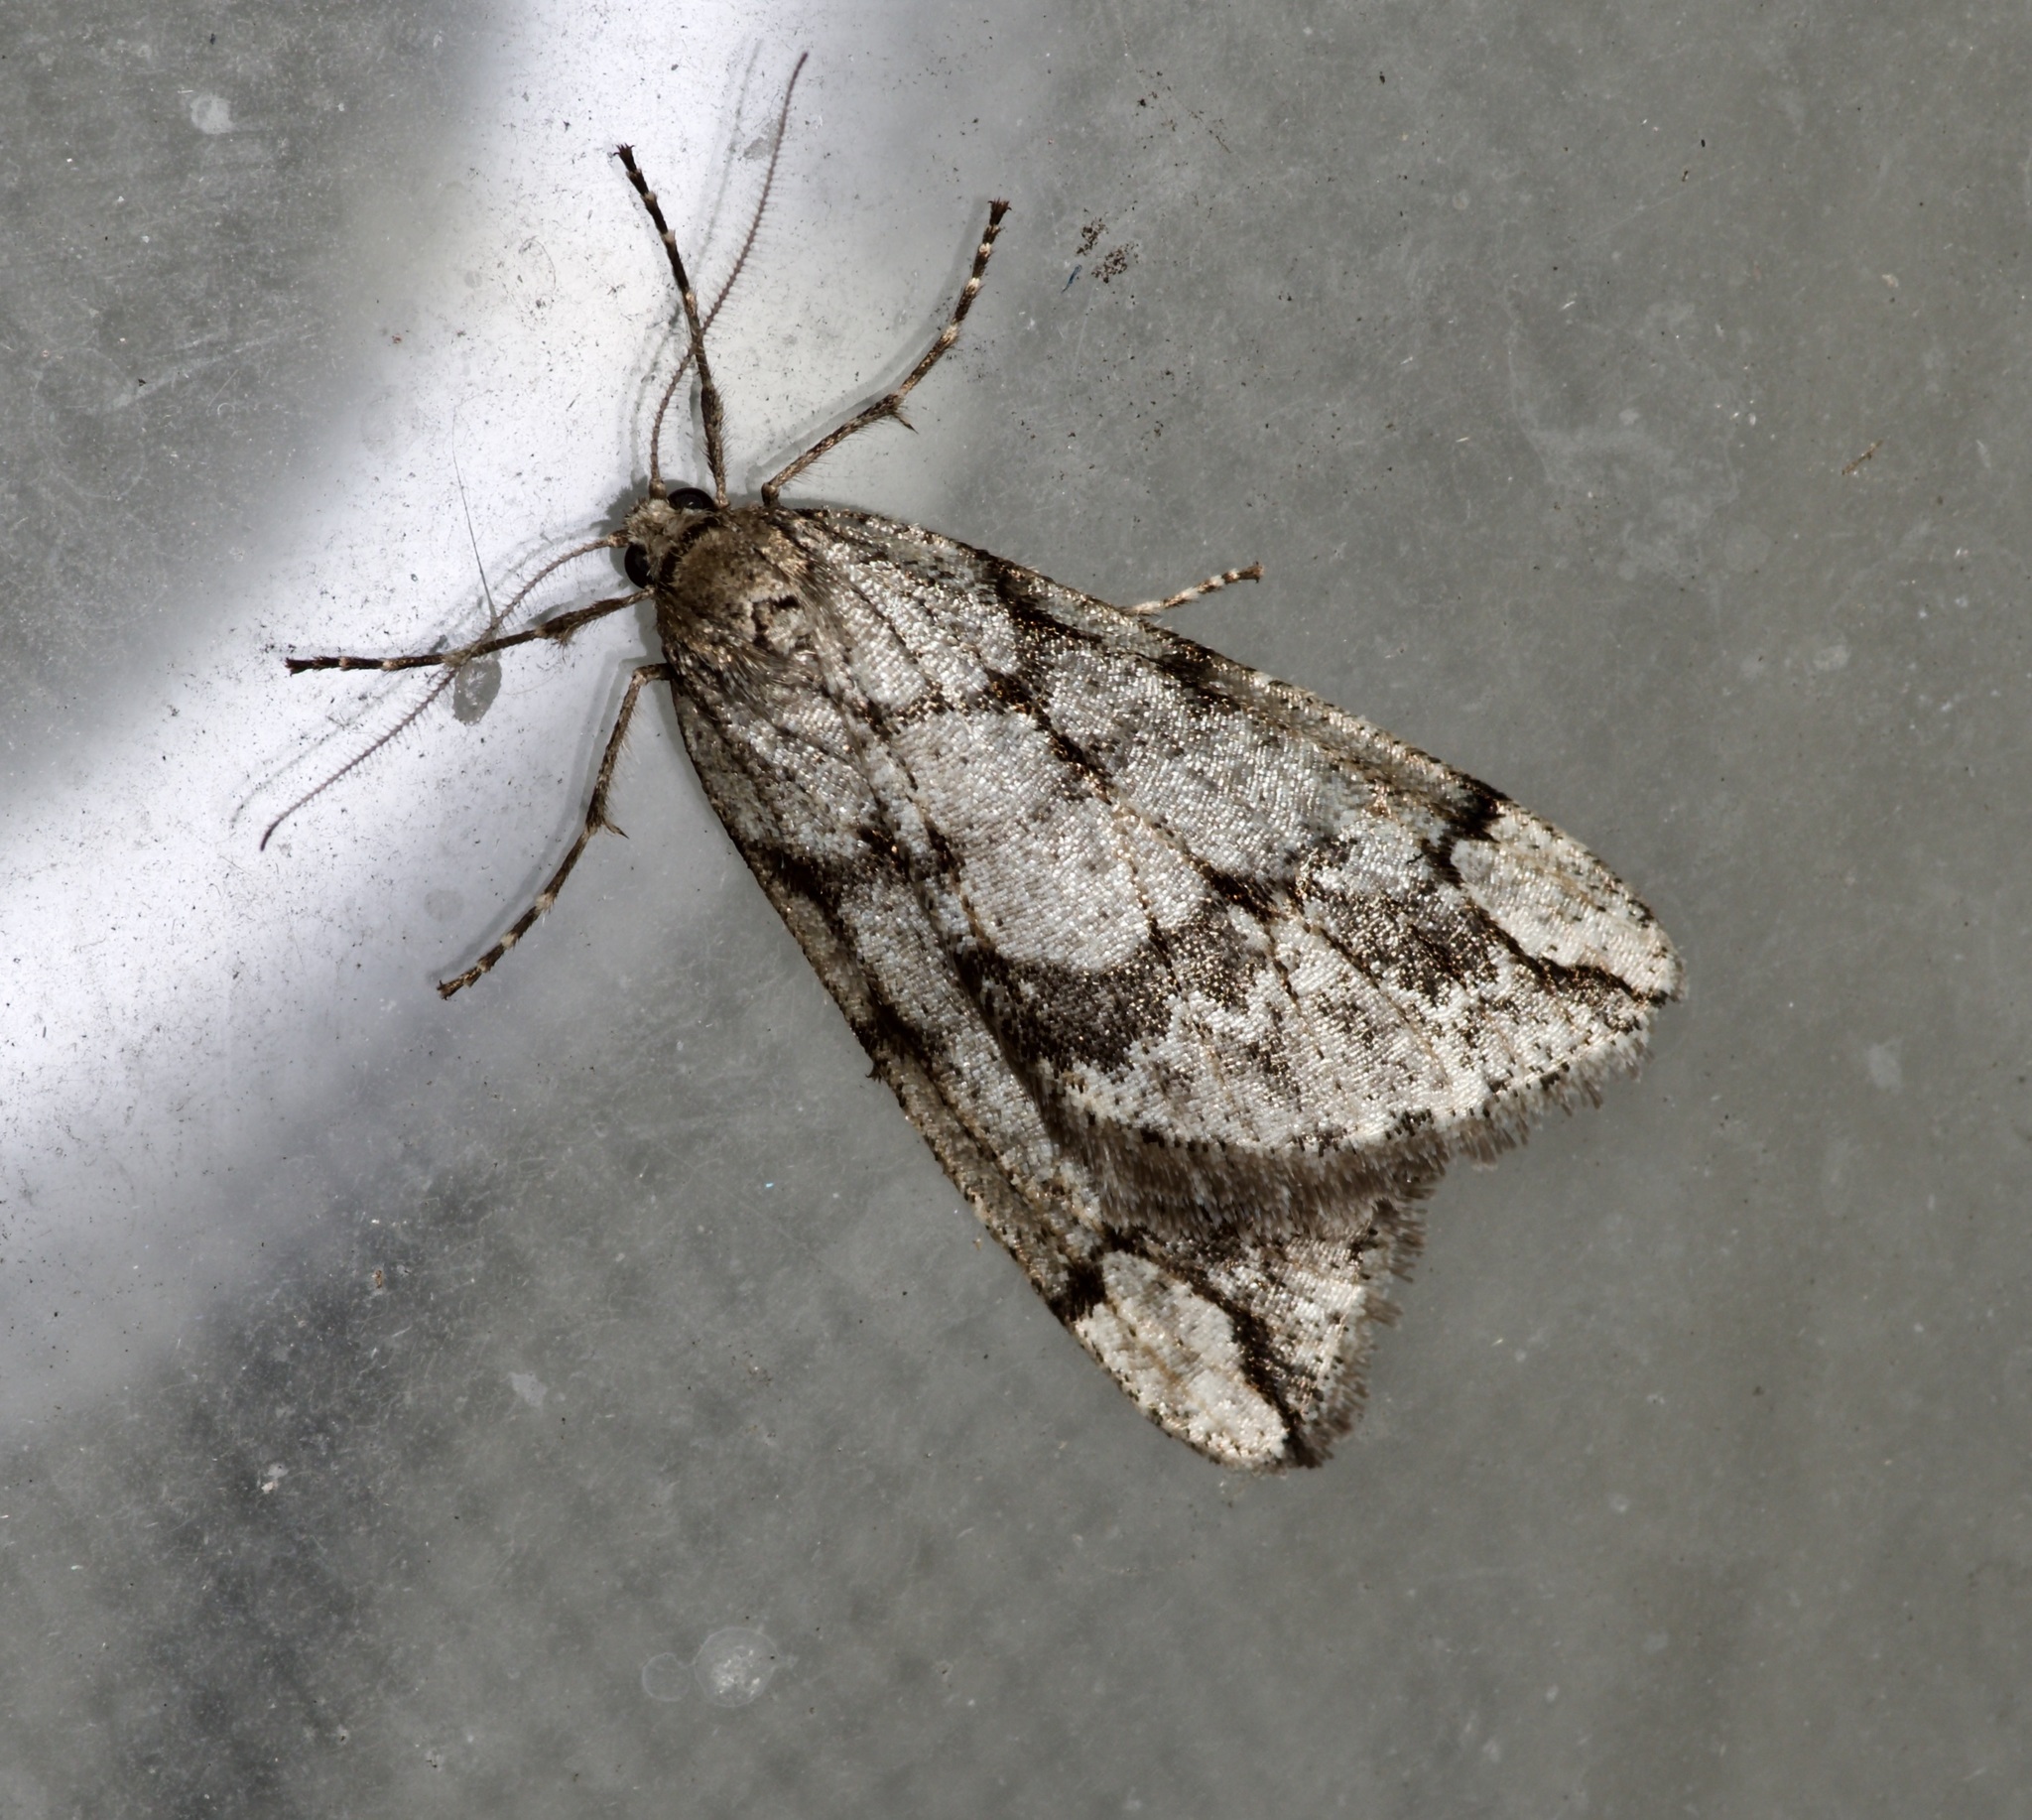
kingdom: Animalia
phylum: Arthropoda
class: Insecta
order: Lepidoptera
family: Geometridae
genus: Paleacrita
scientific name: Paleacrita vernata
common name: Spring cankerworm
